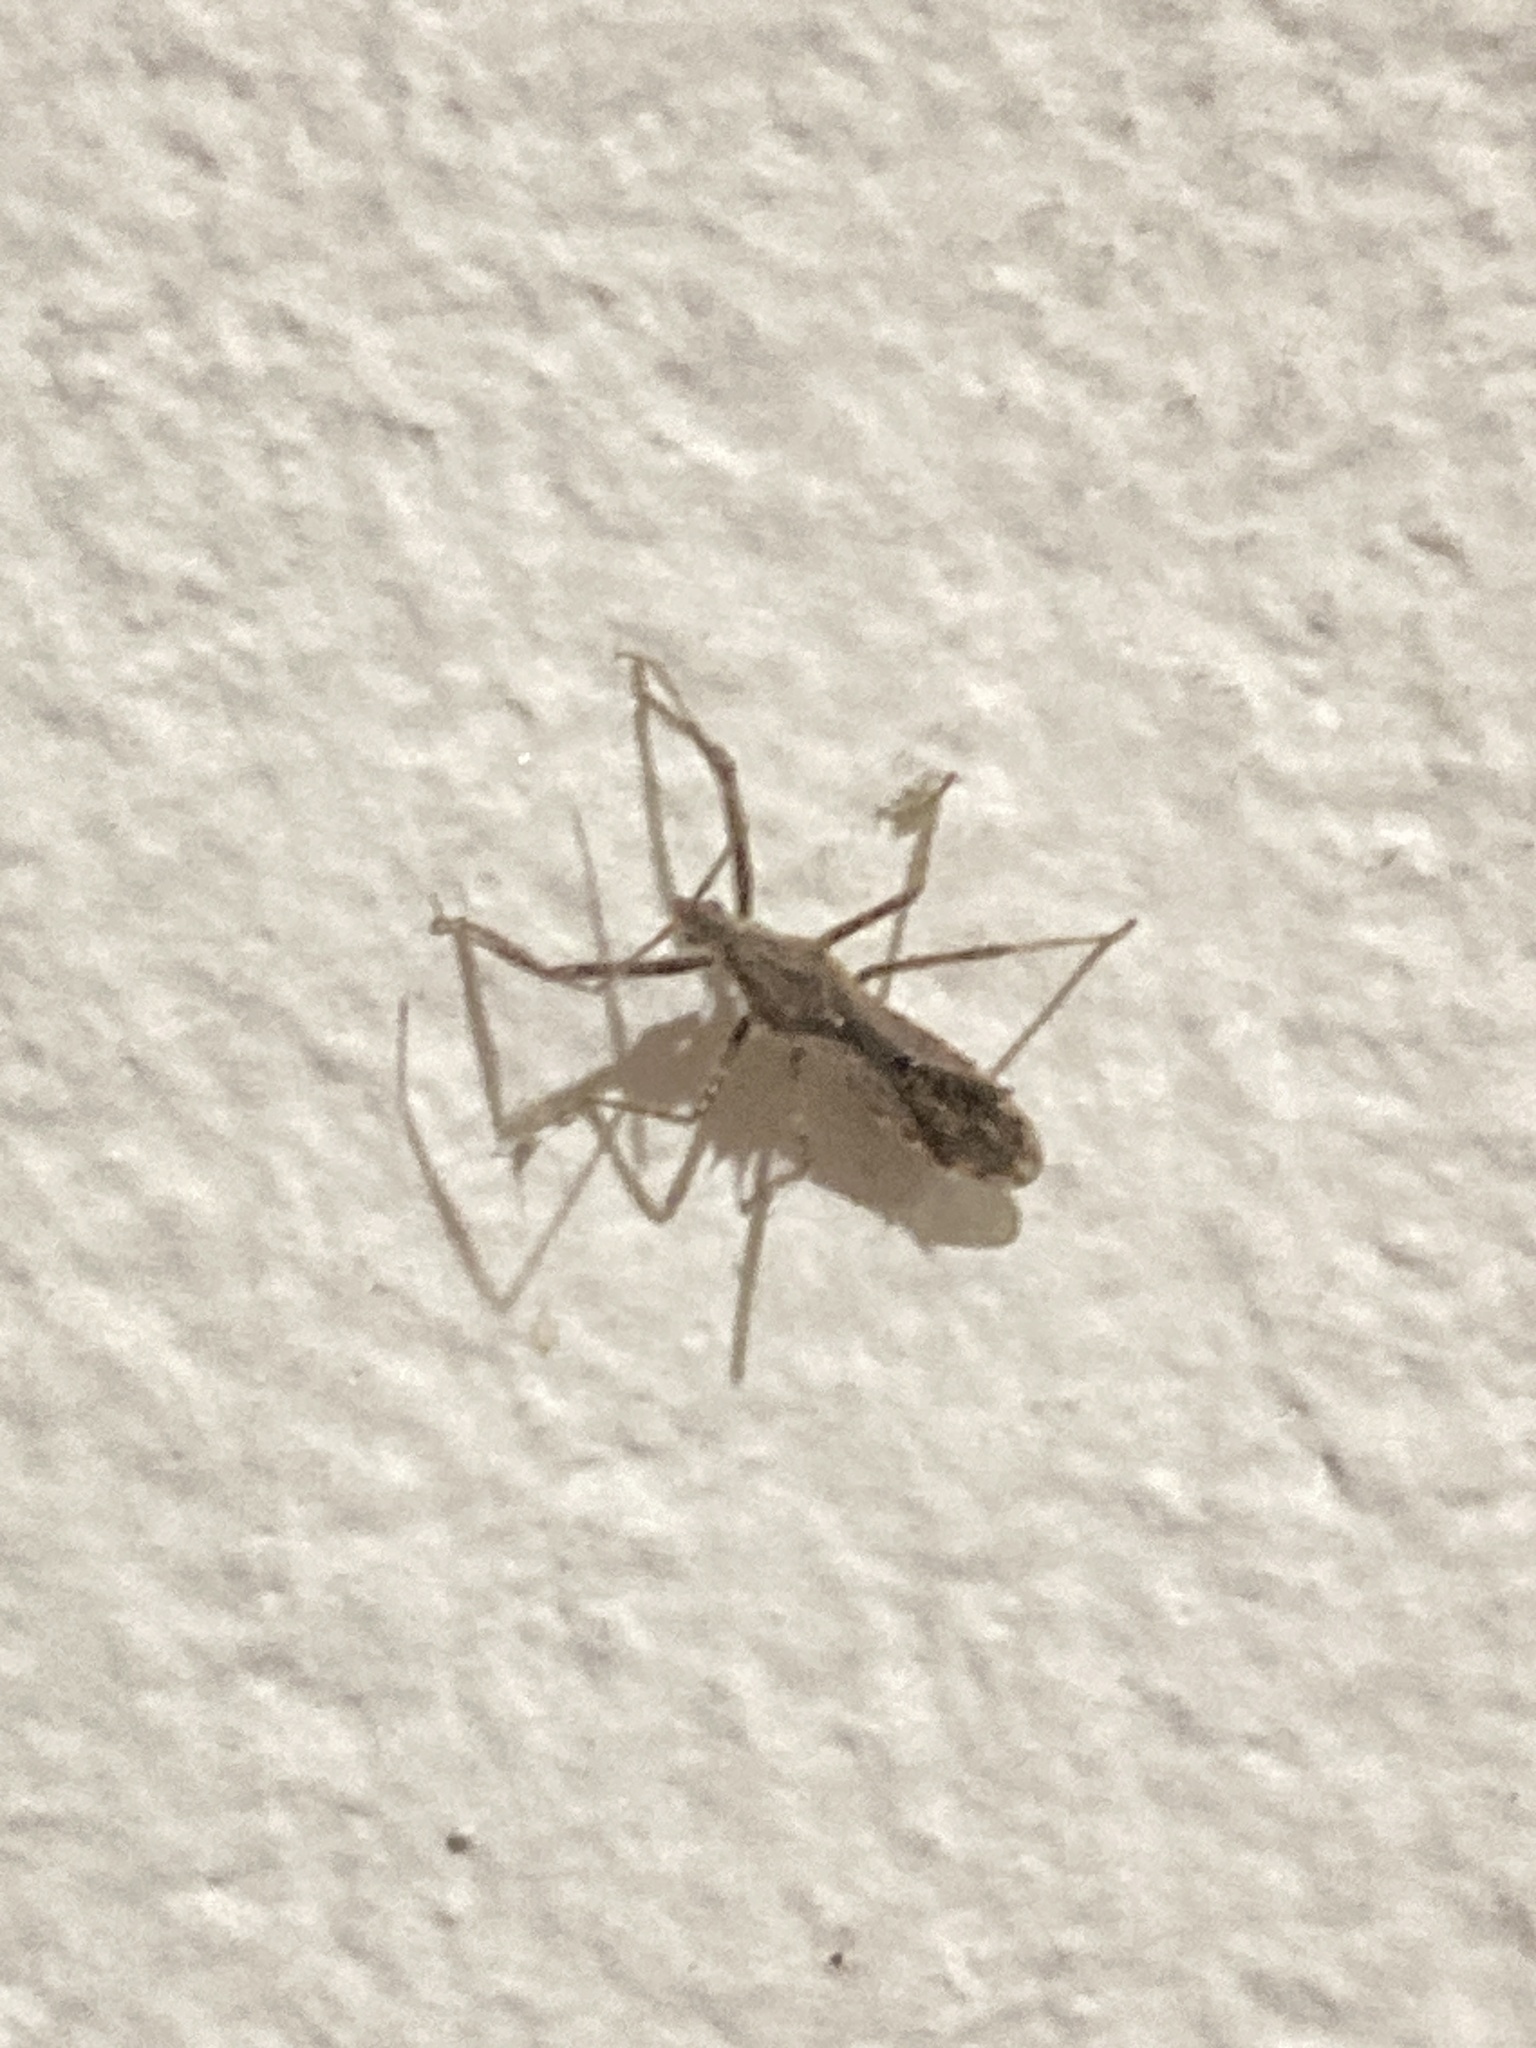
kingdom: Animalia
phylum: Arthropoda
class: Insecta
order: Hemiptera
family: Reduviidae
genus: Atrachelus
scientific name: Atrachelus cinereus
